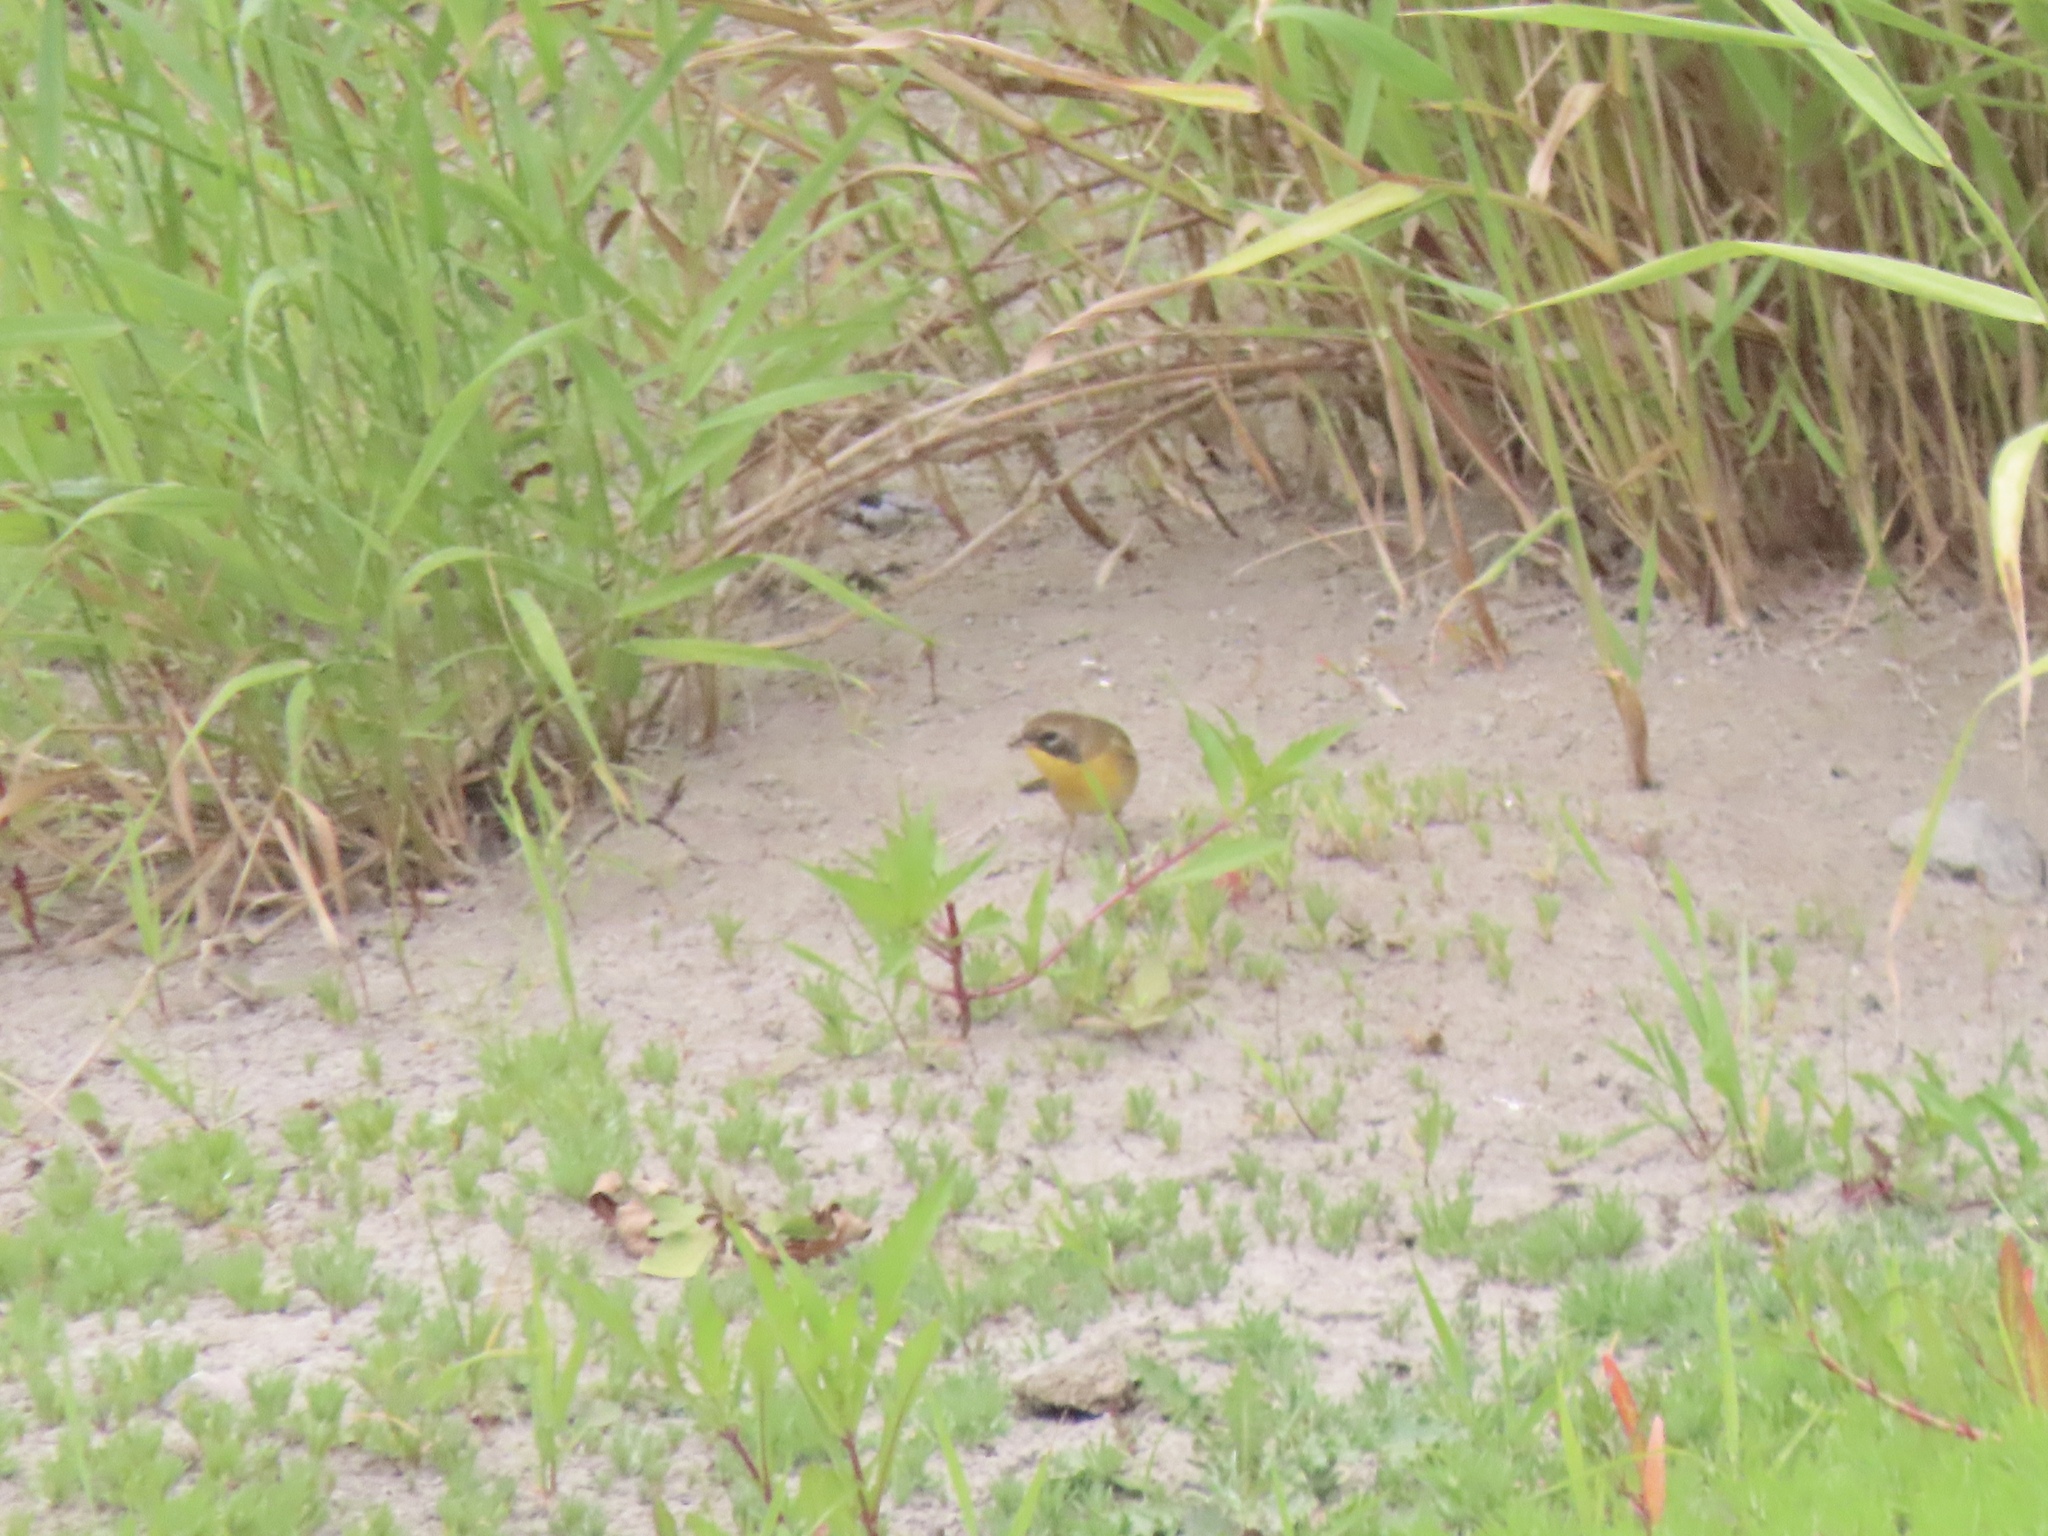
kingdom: Animalia
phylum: Chordata
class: Aves
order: Passeriformes
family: Parulidae
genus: Geothlypis
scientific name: Geothlypis trichas
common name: Common yellowthroat
